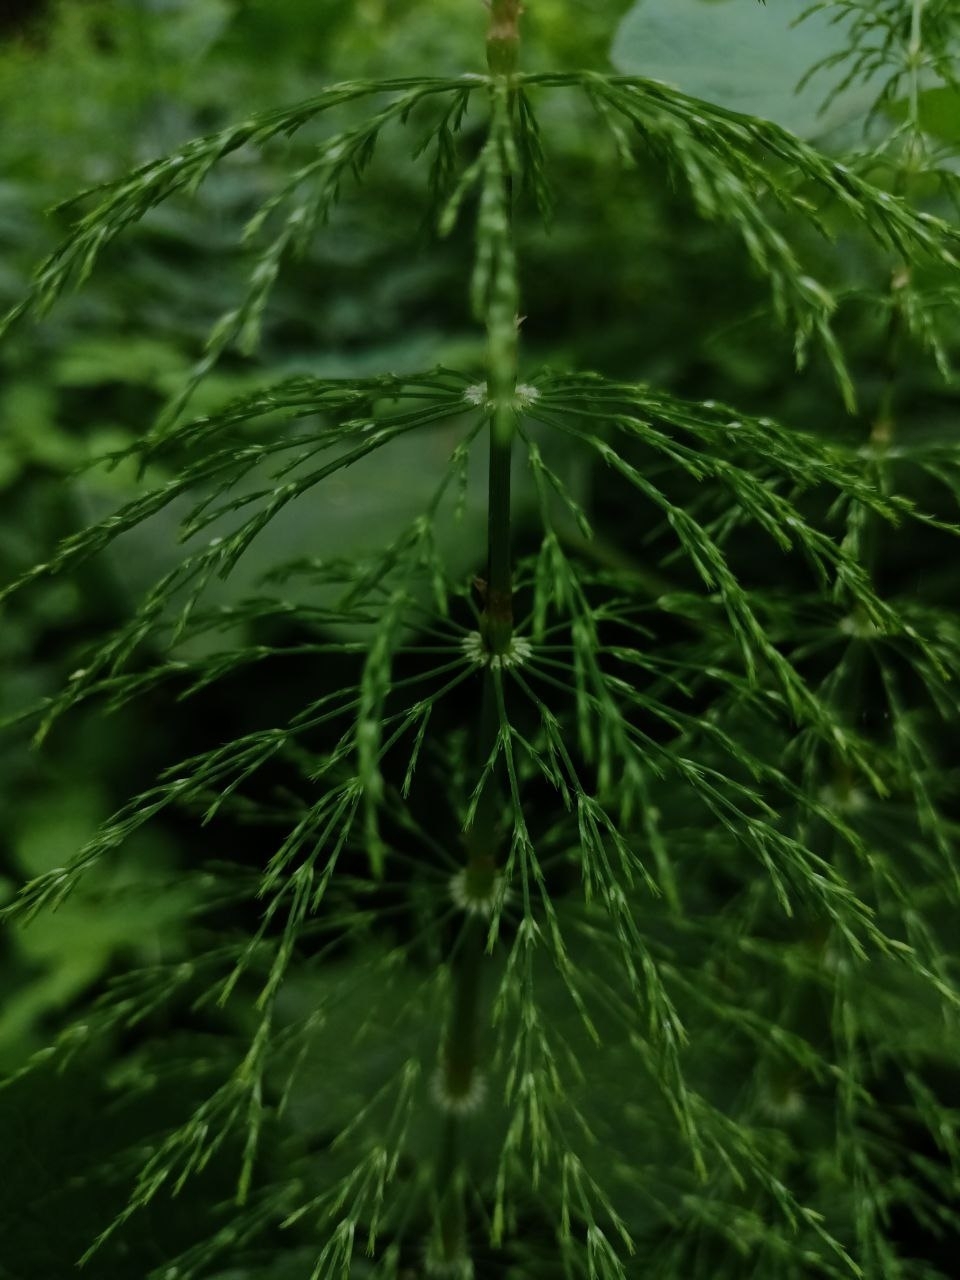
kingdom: Plantae
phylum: Tracheophyta
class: Polypodiopsida
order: Equisetales
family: Equisetaceae
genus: Equisetum
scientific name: Equisetum sylvaticum
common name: Wood horsetail
